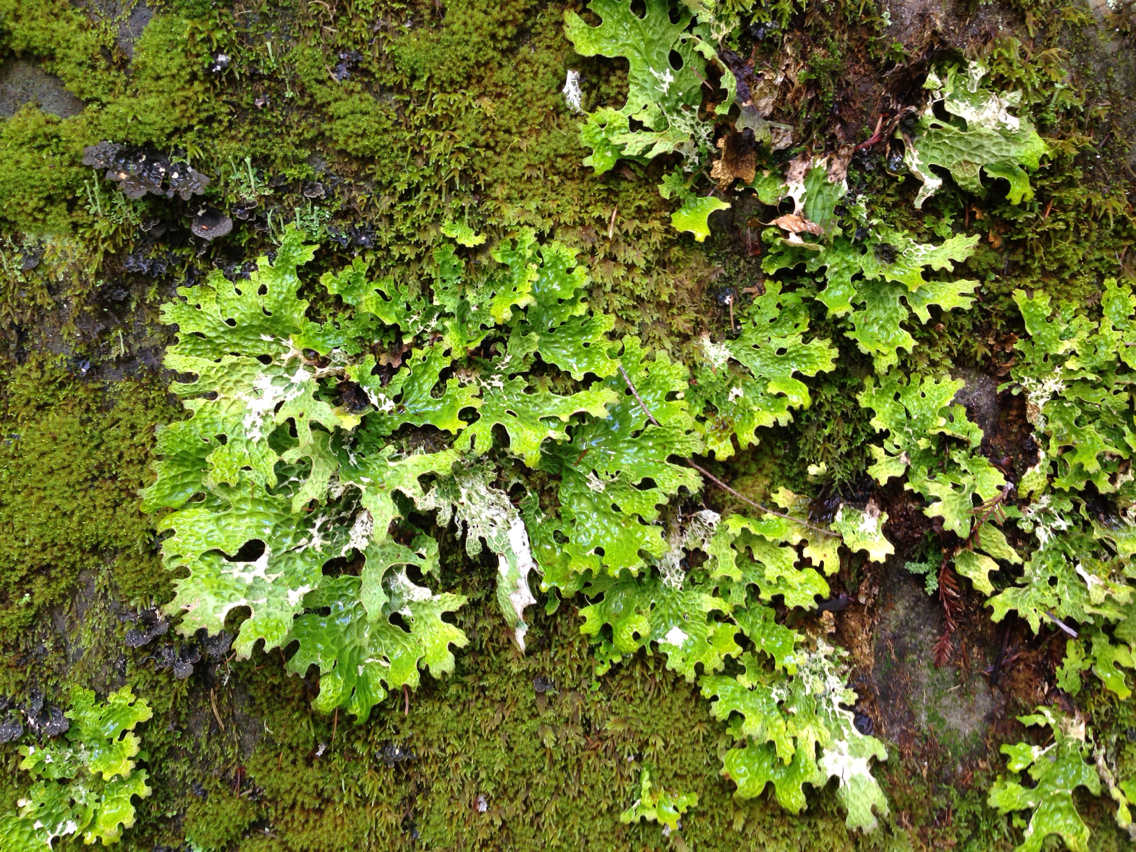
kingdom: Fungi
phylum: Ascomycota
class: Lecanoromycetes
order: Peltigerales
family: Lobariaceae
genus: Lobaria
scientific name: Lobaria pulmonaria
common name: Lungwort
